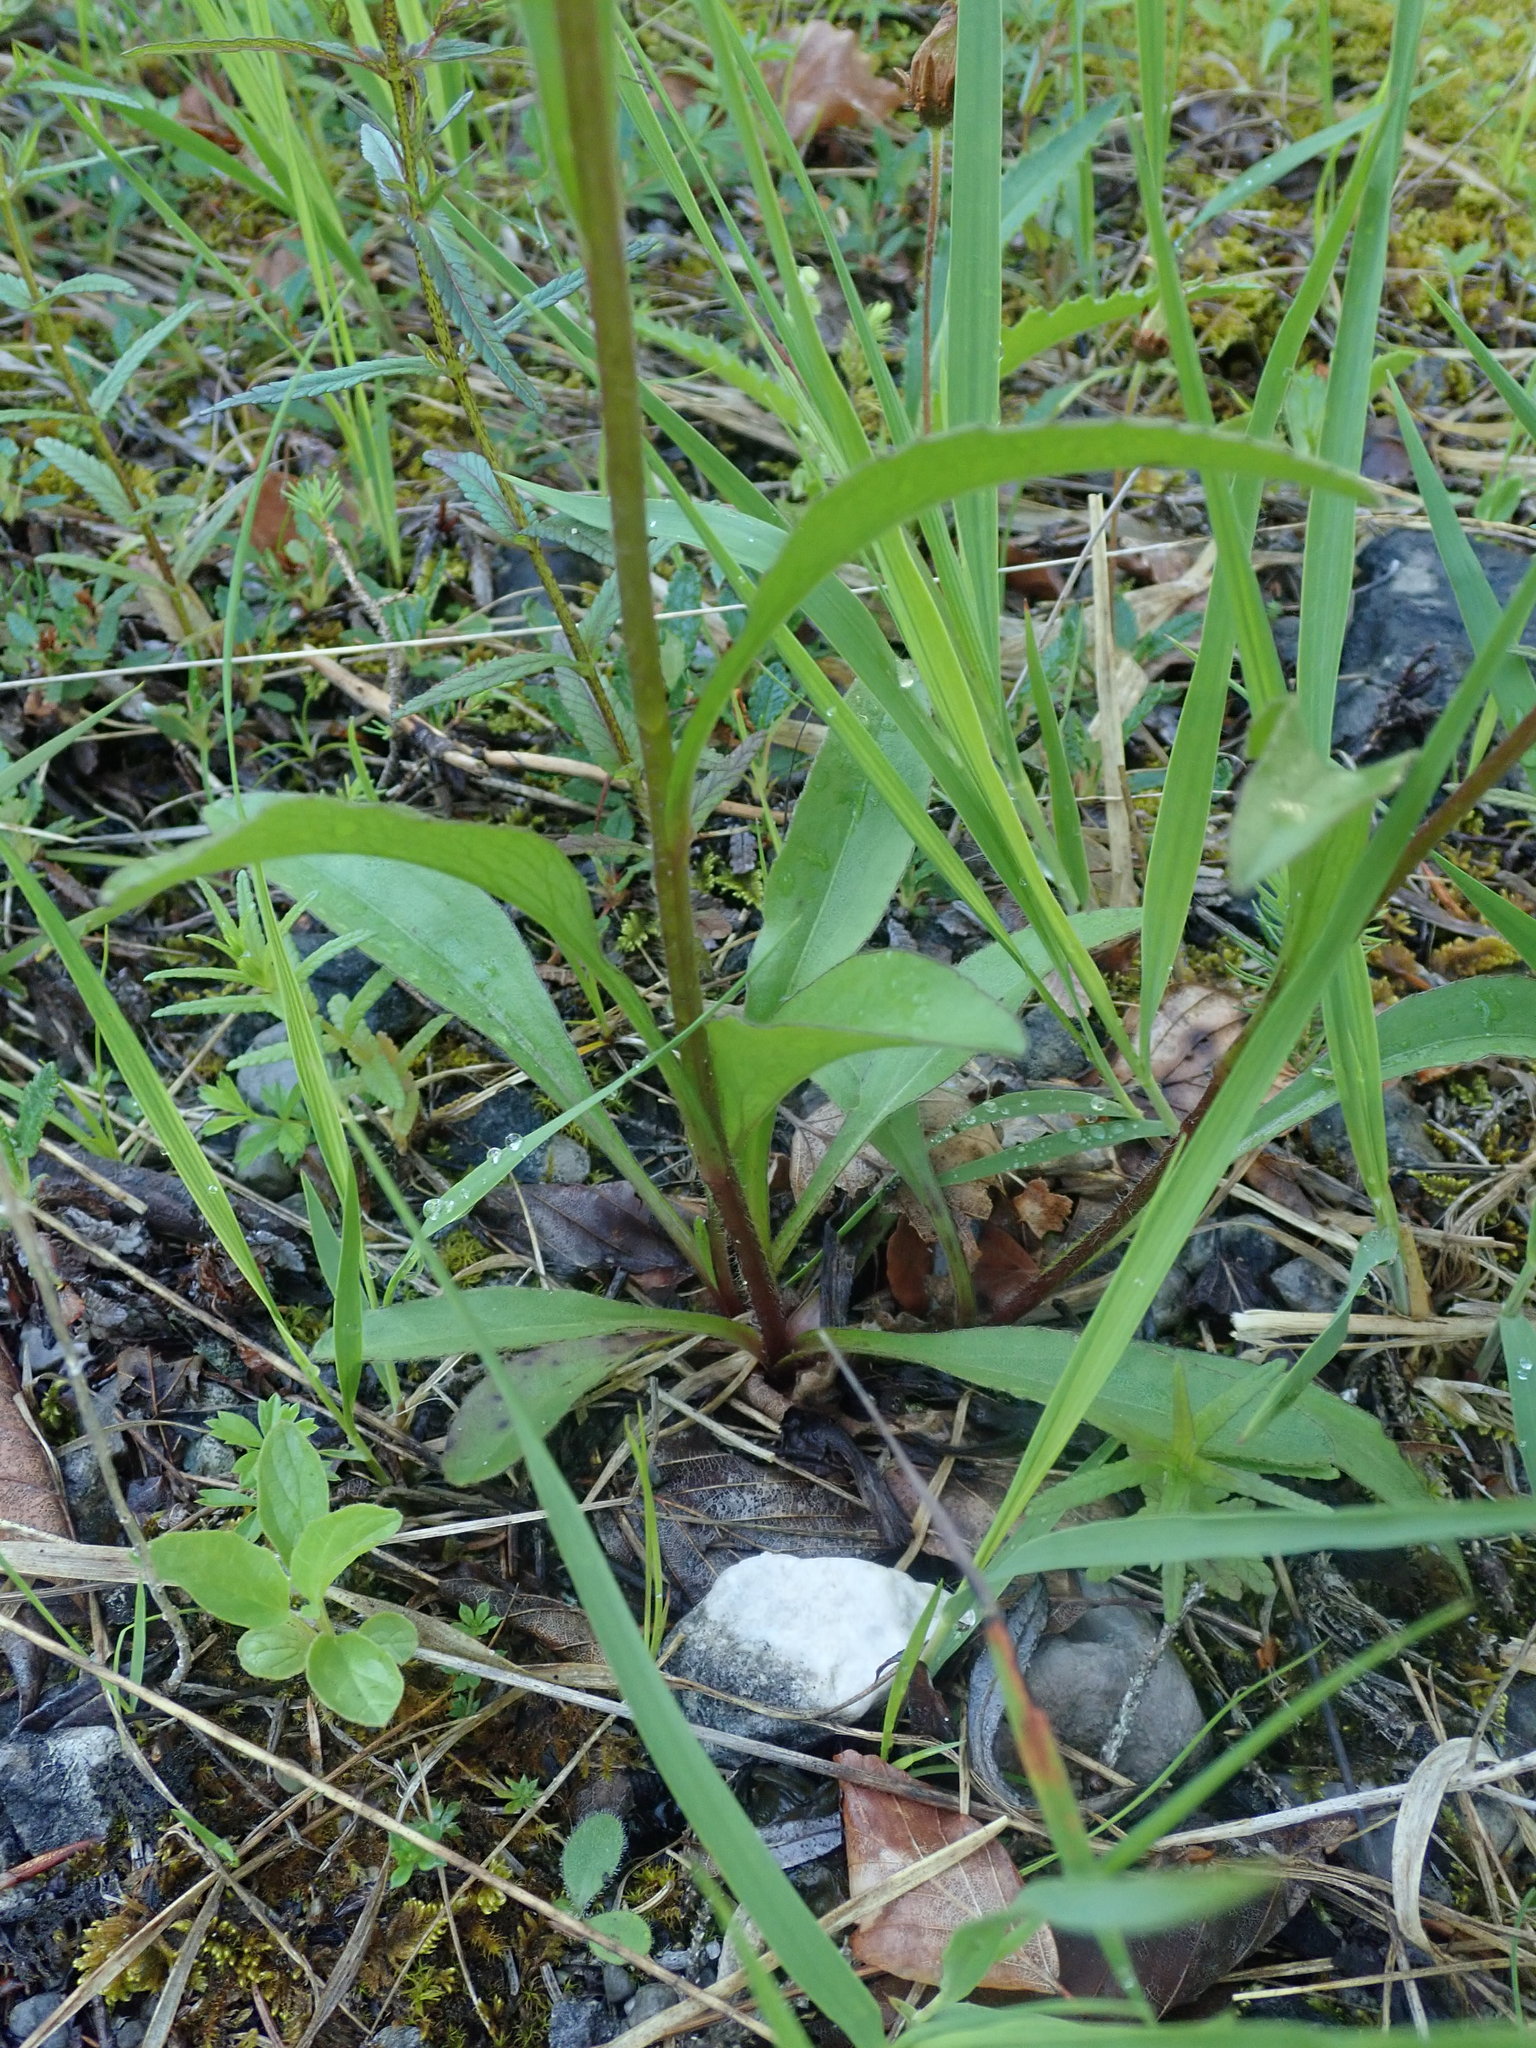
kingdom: Plantae
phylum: Tracheophyta
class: Magnoliopsida
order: Asterales
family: Asteraceae
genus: Buphthalmum
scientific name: Buphthalmum salicifolium
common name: Willow-leaved yellow-oxeye
